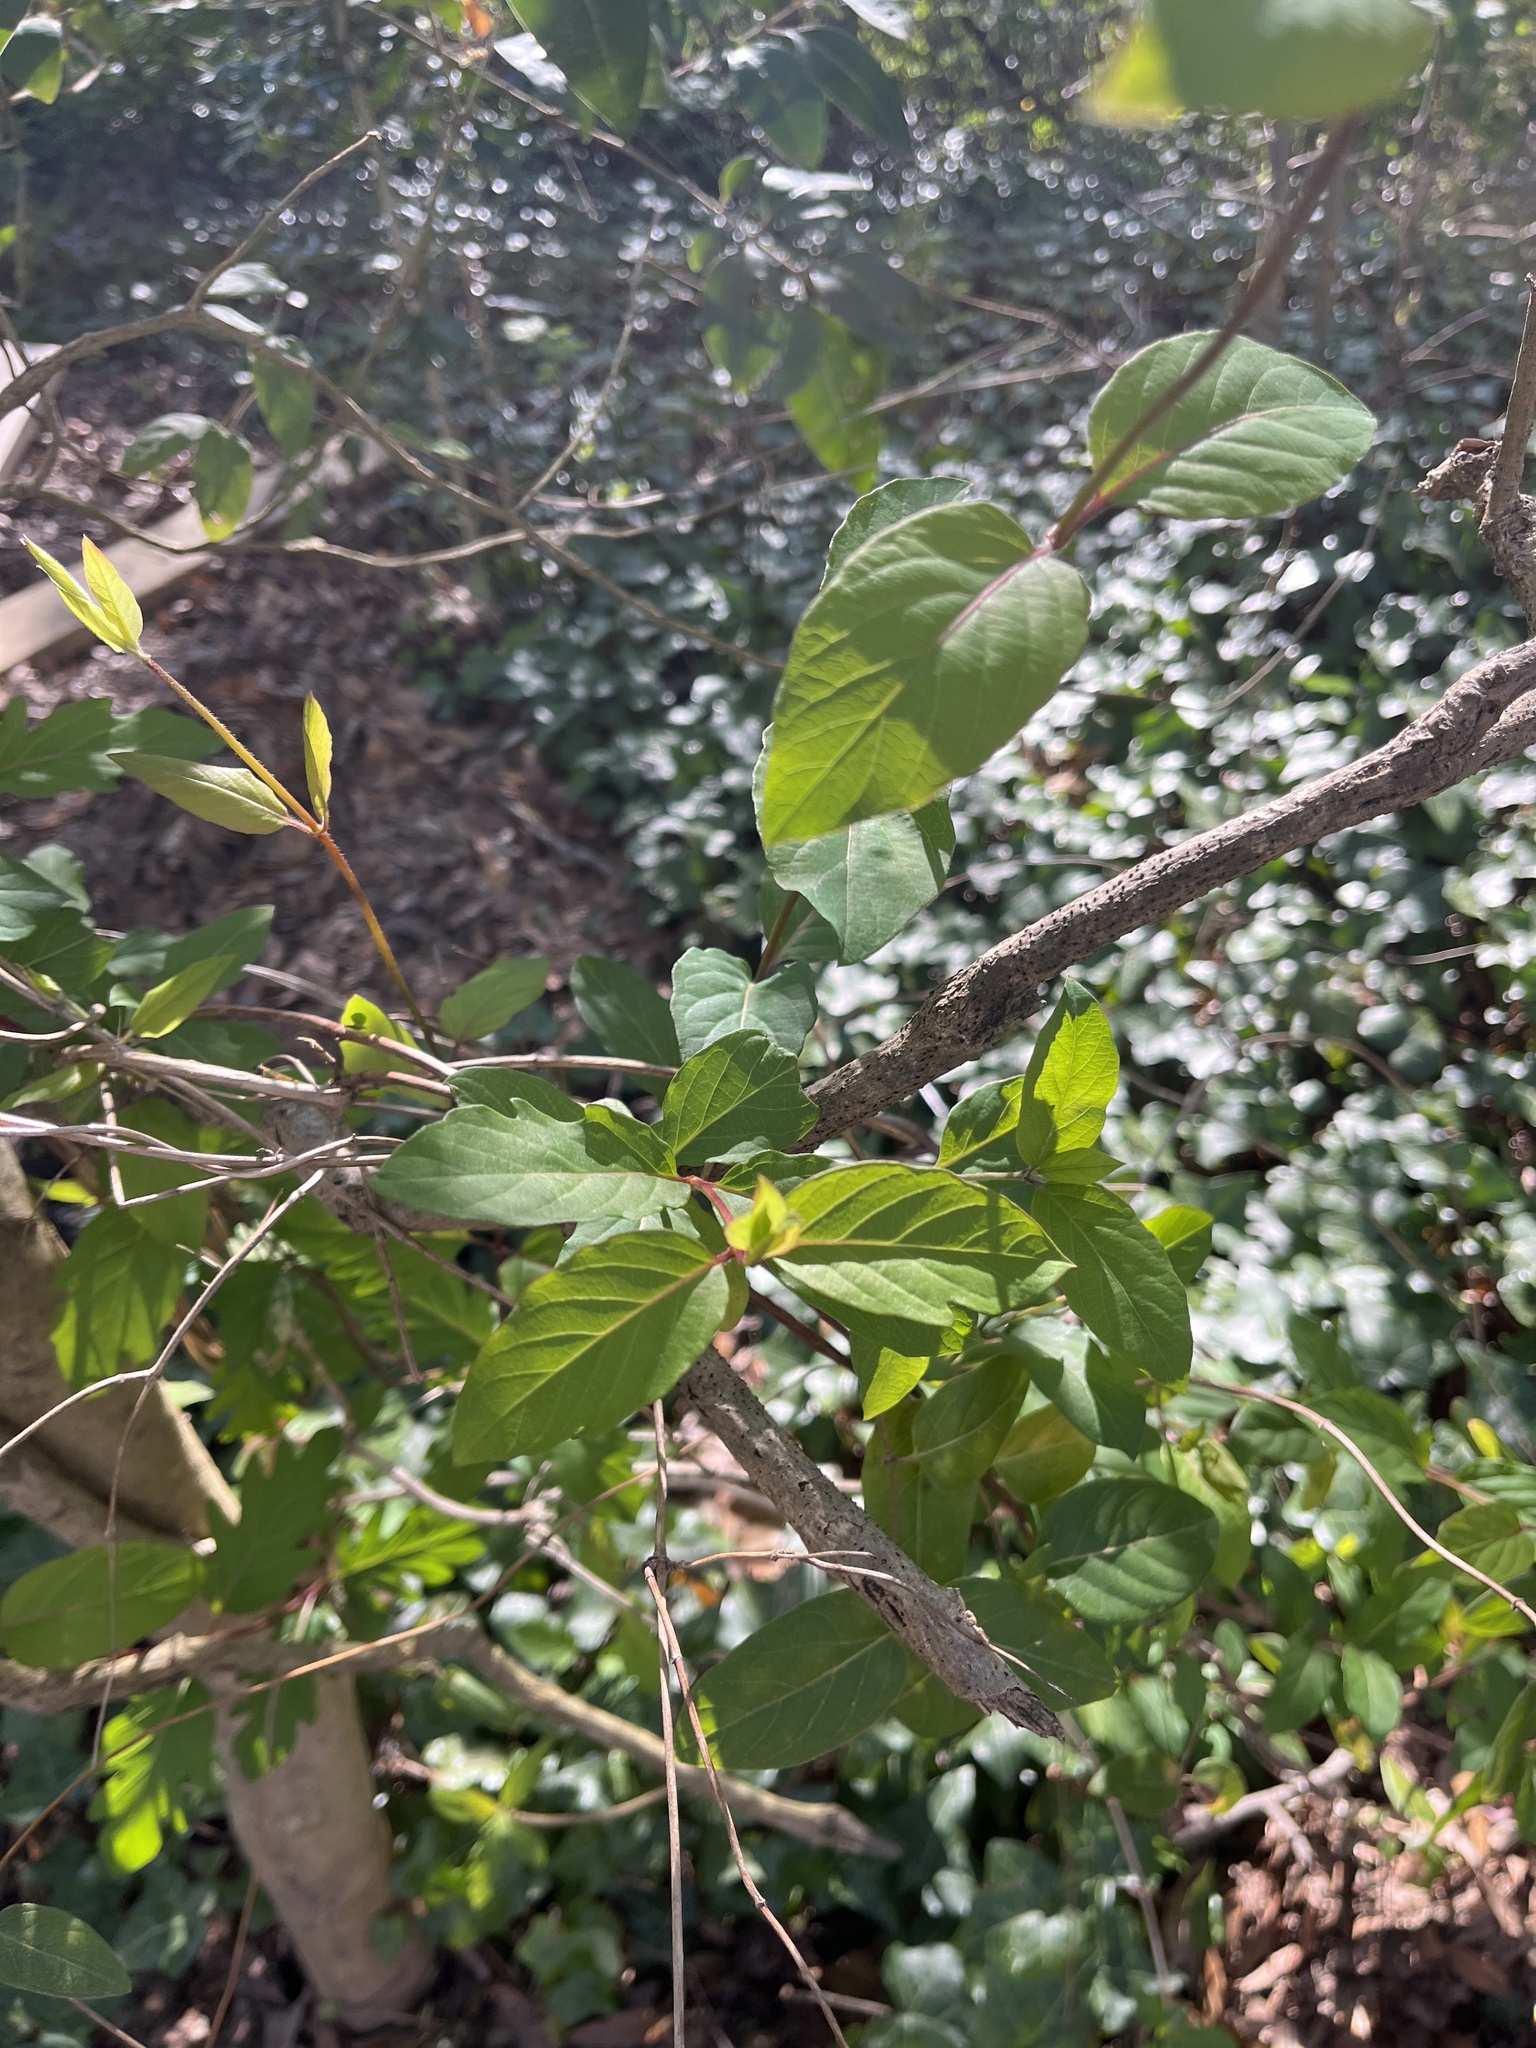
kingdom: Plantae
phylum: Tracheophyta
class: Magnoliopsida
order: Dipsacales
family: Caprifoliaceae
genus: Lonicera
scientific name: Lonicera japonica
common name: Japanese honeysuckle
